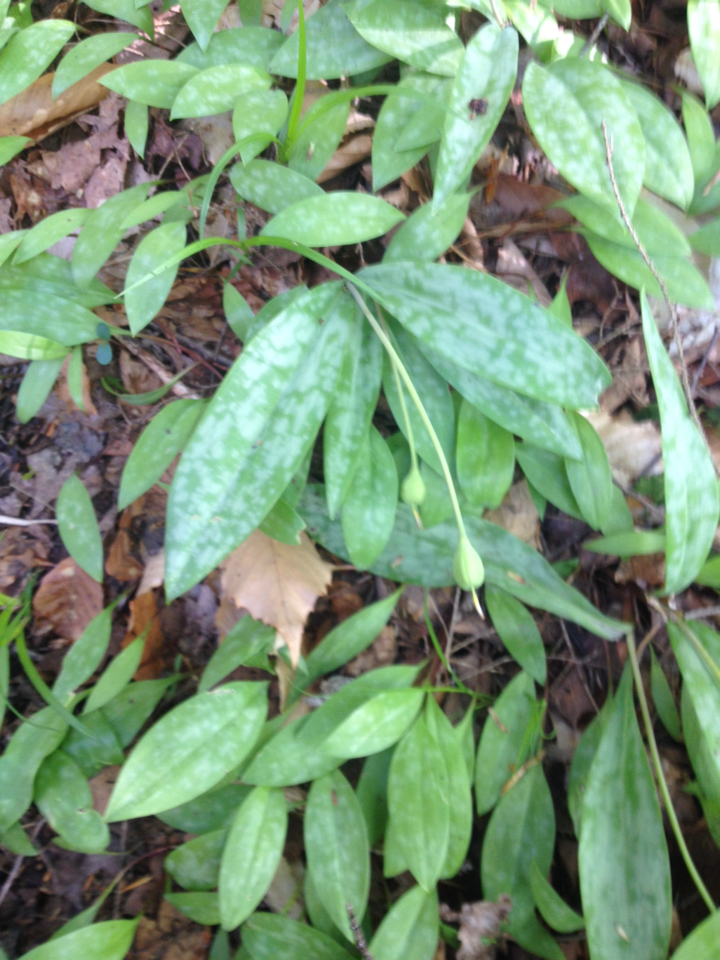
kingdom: Plantae
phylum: Tracheophyta
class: Liliopsida
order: Liliales
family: Liliaceae
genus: Erythronium
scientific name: Erythronium americanum
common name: Yellow adder's-tongue
